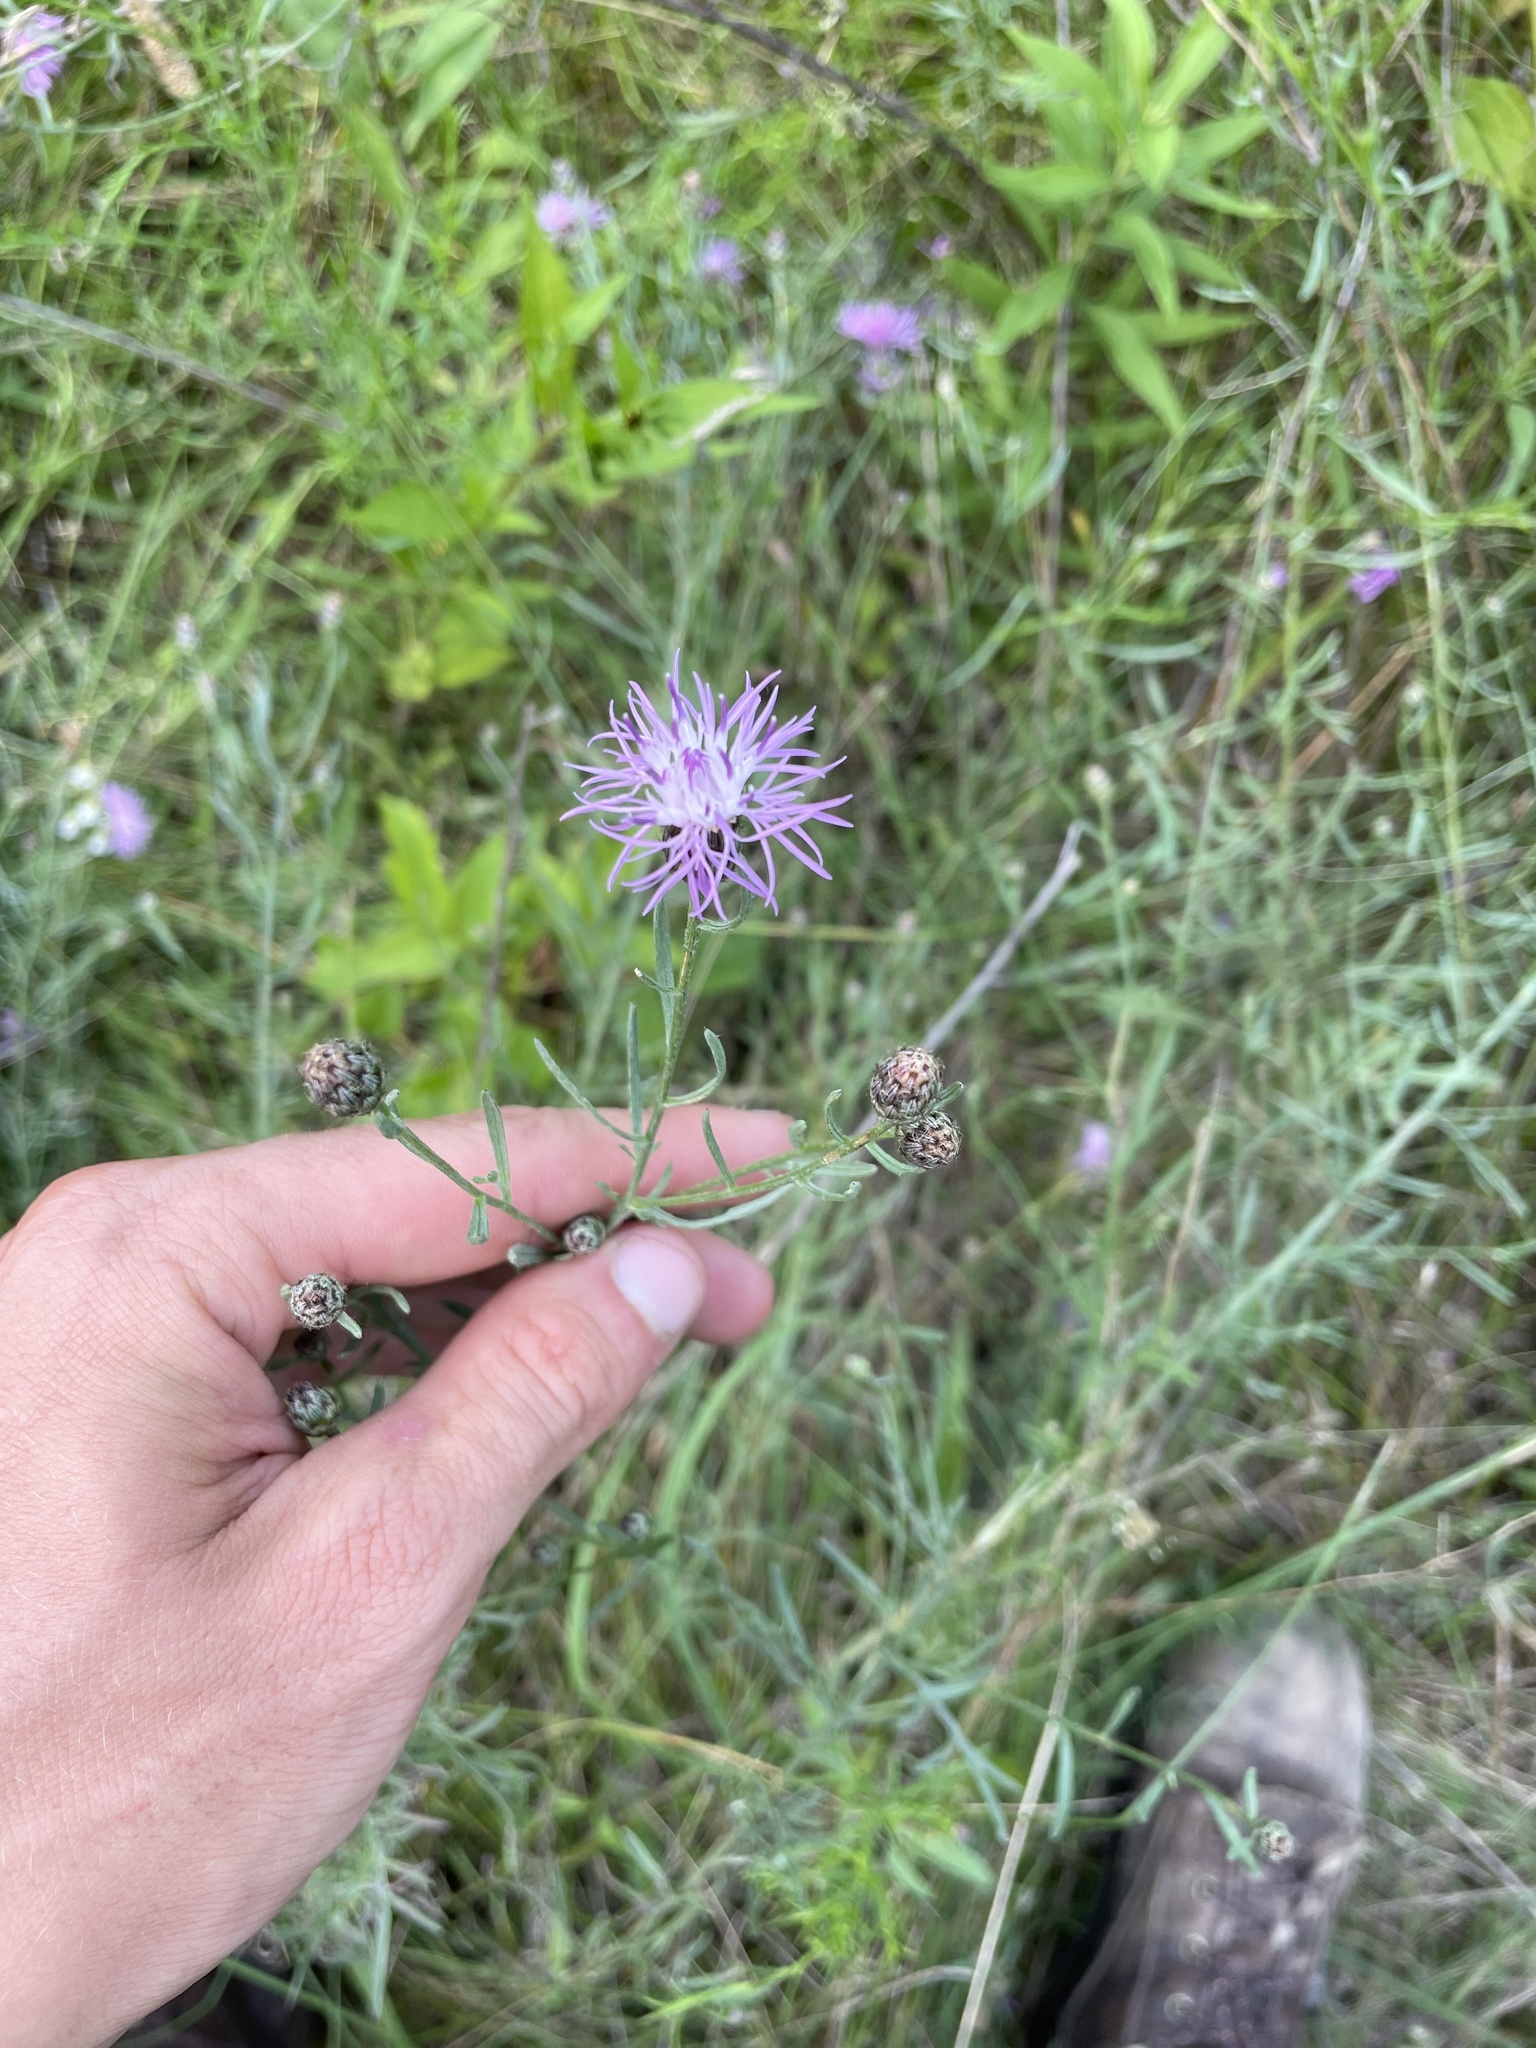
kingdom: Plantae
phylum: Tracheophyta
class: Magnoliopsida
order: Asterales
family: Asteraceae
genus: Centaurea
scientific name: Centaurea stoebe
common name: Spotted knapweed
